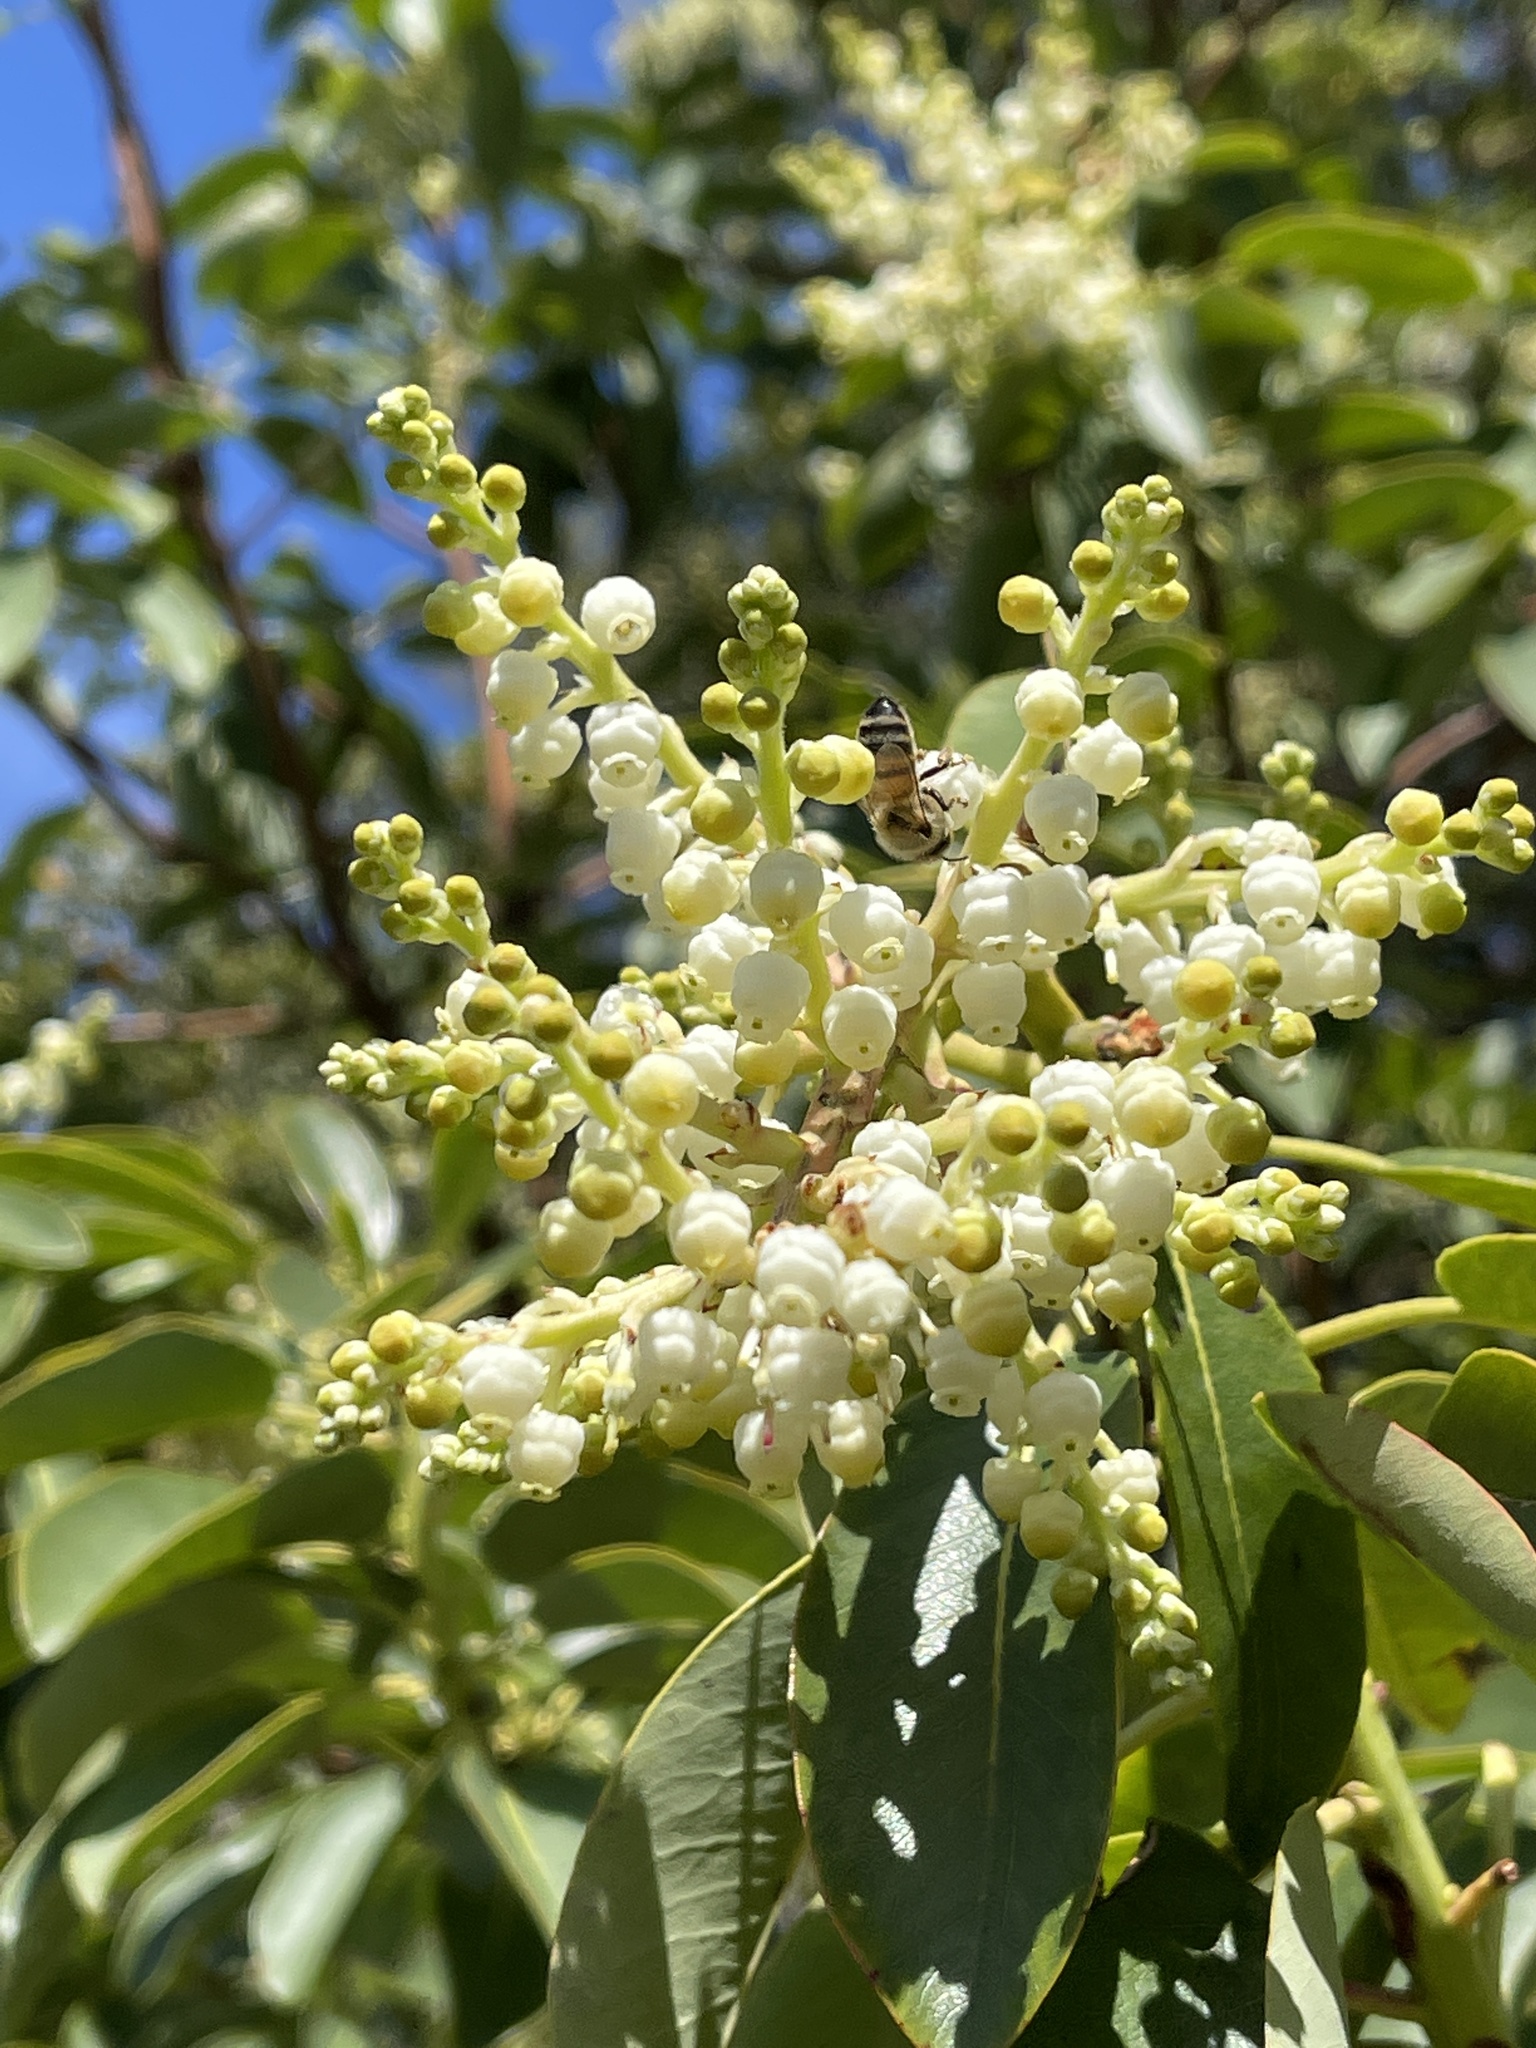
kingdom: Plantae
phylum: Tracheophyta
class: Magnoliopsida
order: Ericales
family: Ericaceae
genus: Arbutus
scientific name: Arbutus menziesii
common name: Pacific madrone
